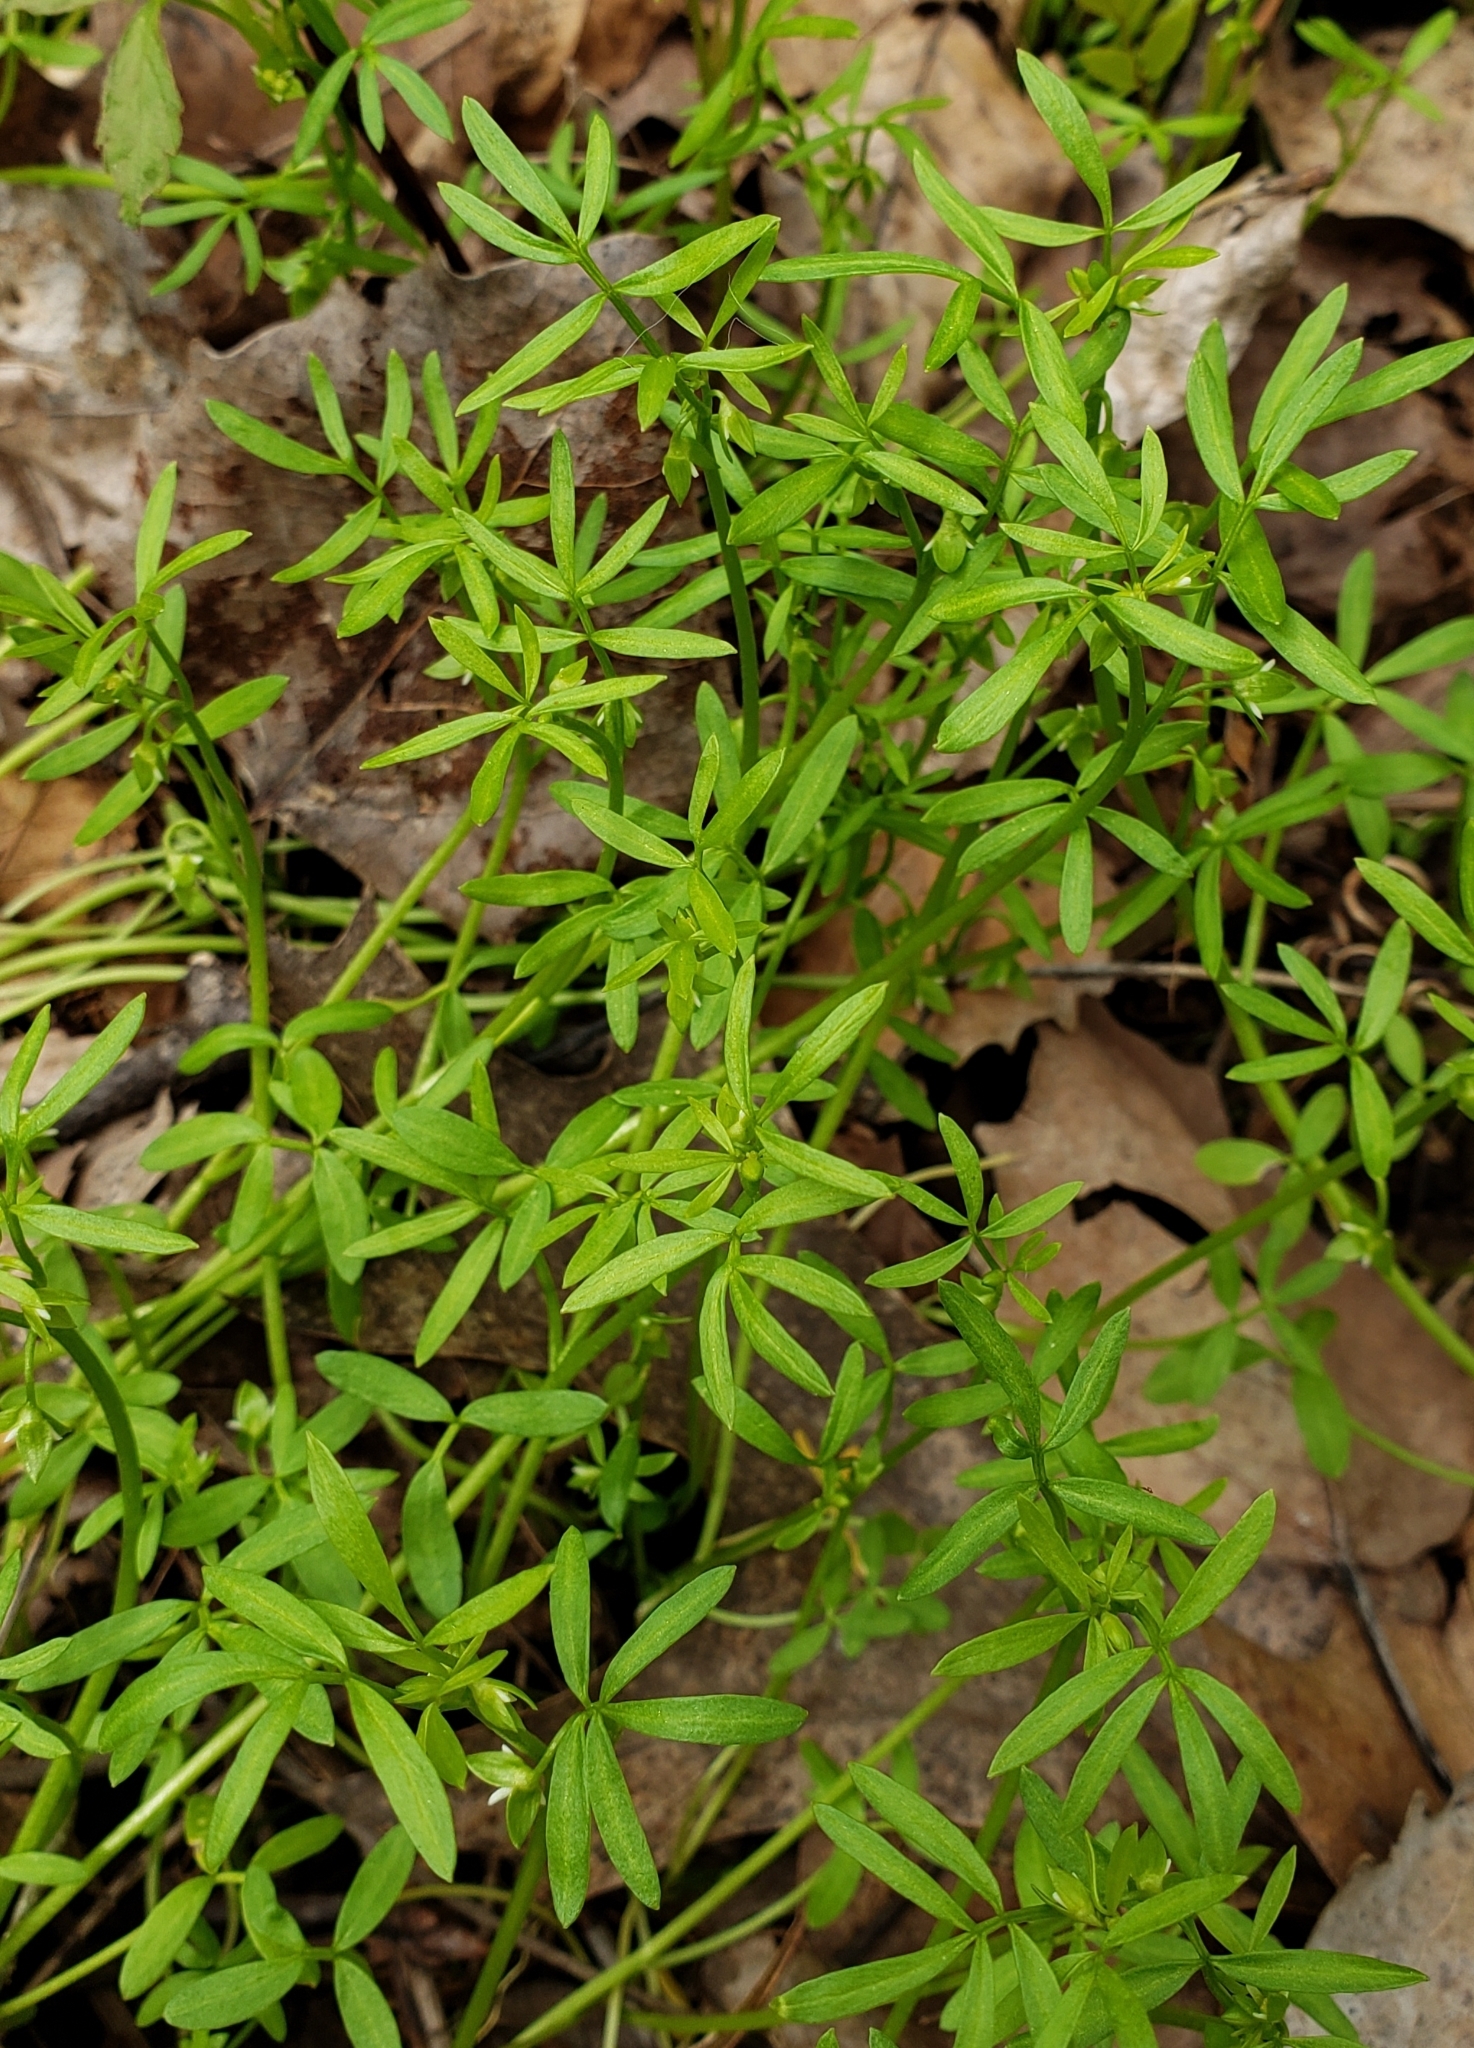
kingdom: Plantae
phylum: Tracheophyta
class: Magnoliopsida
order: Brassicales
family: Limnanthaceae
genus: Floerkea
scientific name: Floerkea proserpinacoides
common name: False mermaid
